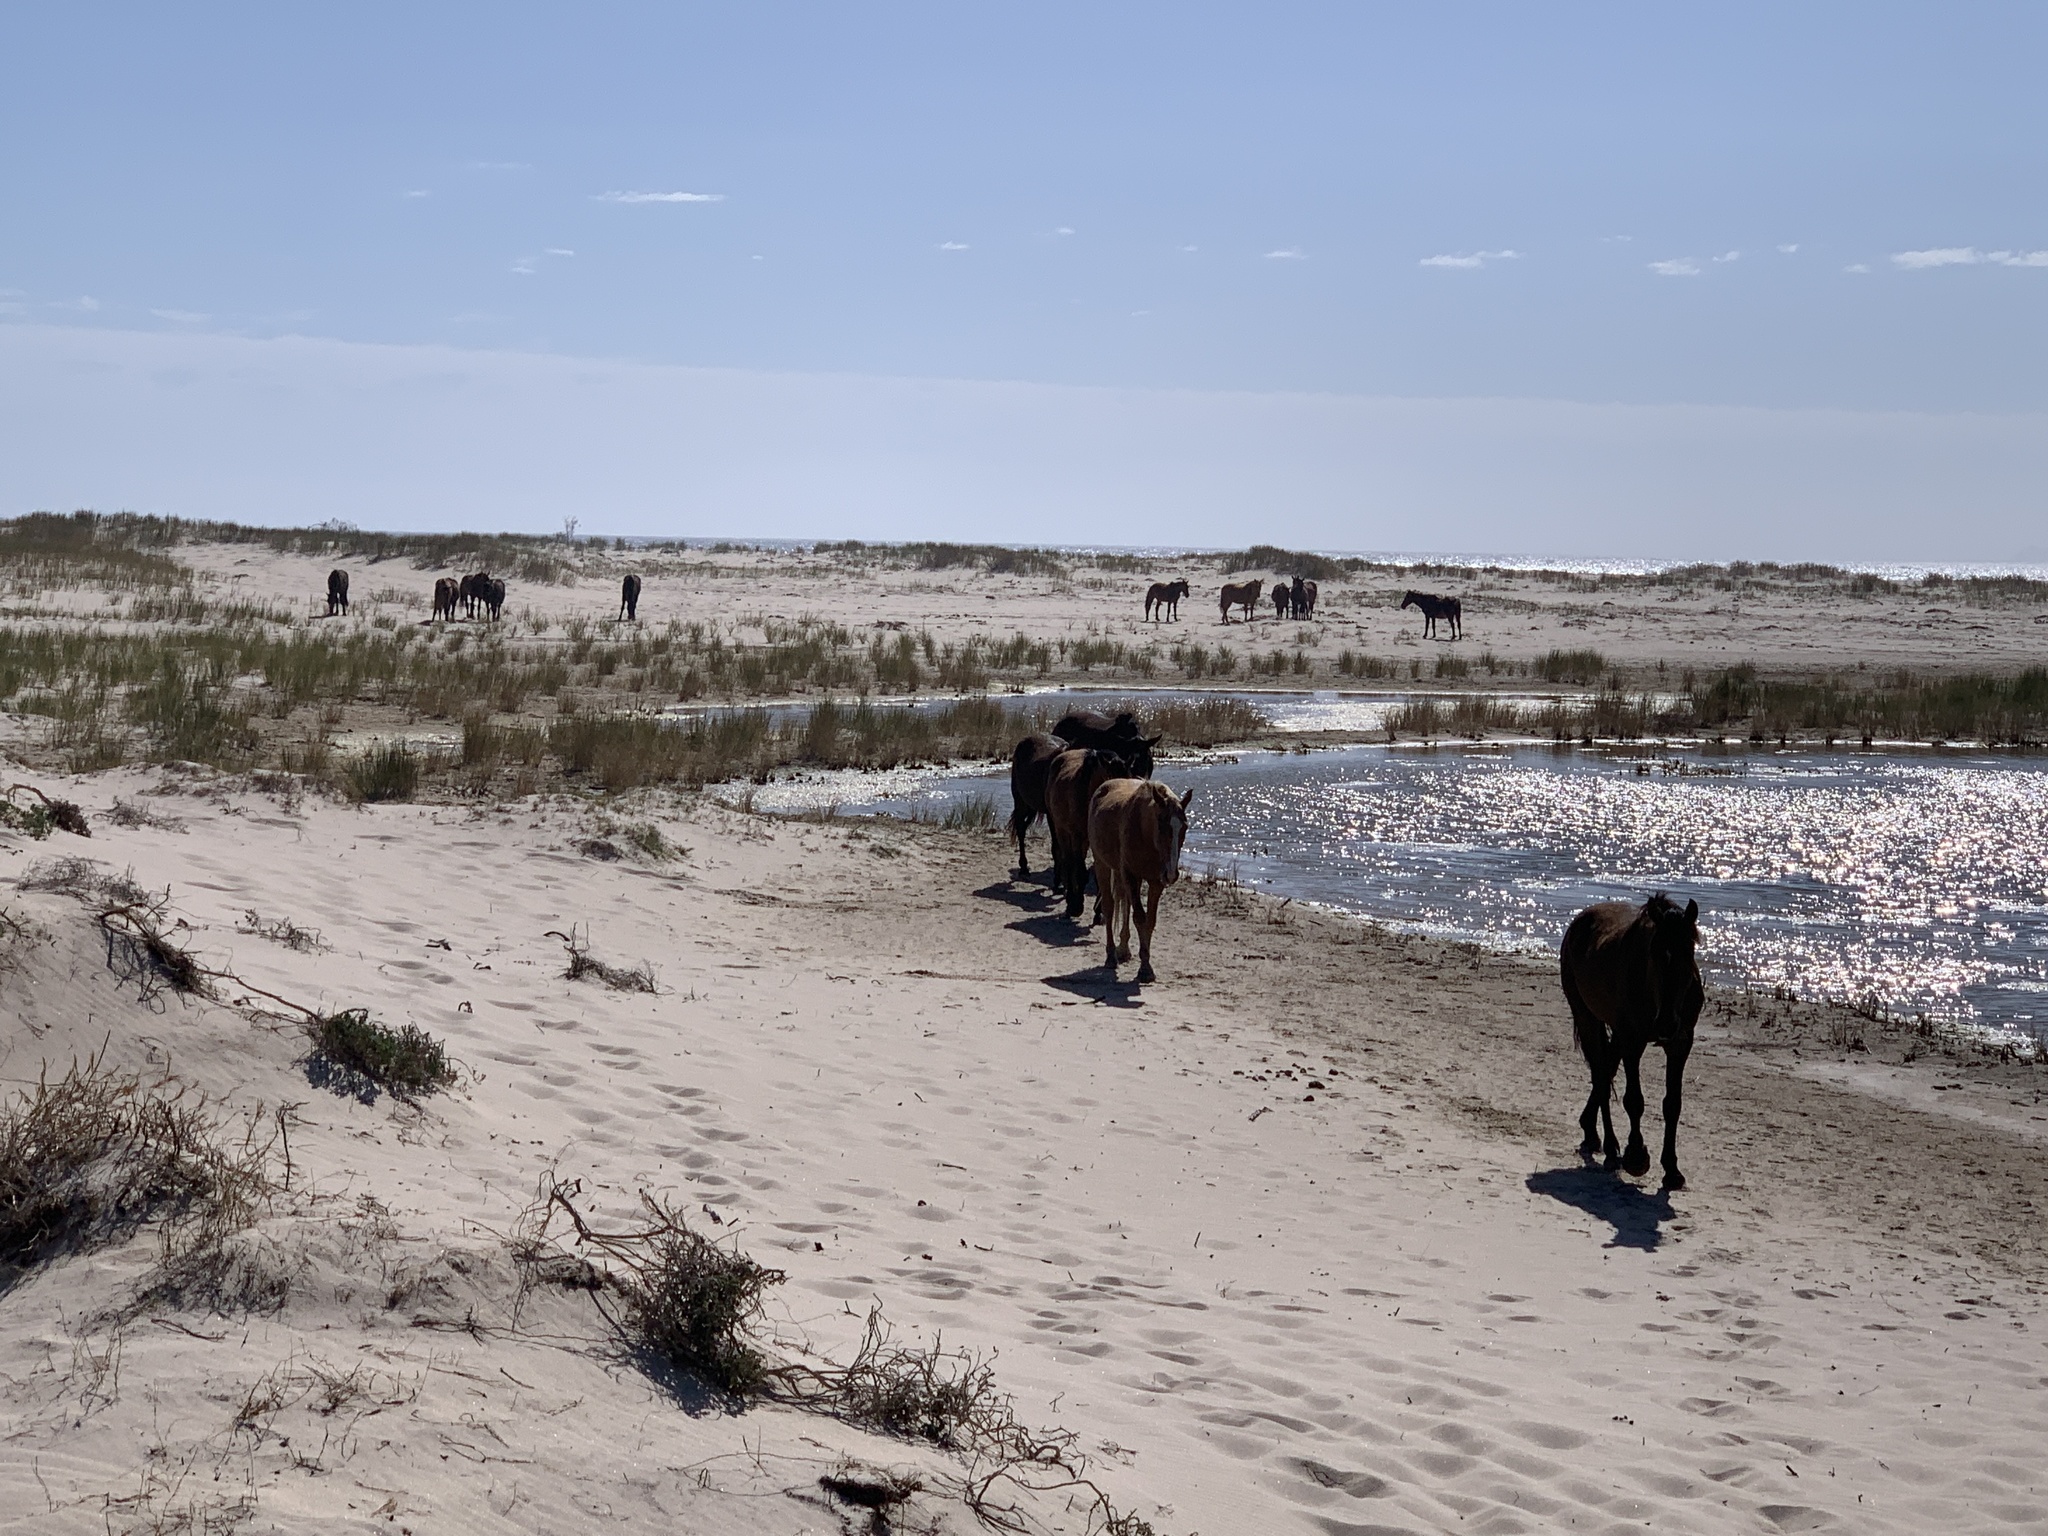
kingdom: Animalia
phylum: Chordata
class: Mammalia
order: Perissodactyla
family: Equidae
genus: Equus
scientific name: Equus caballus
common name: Horse
